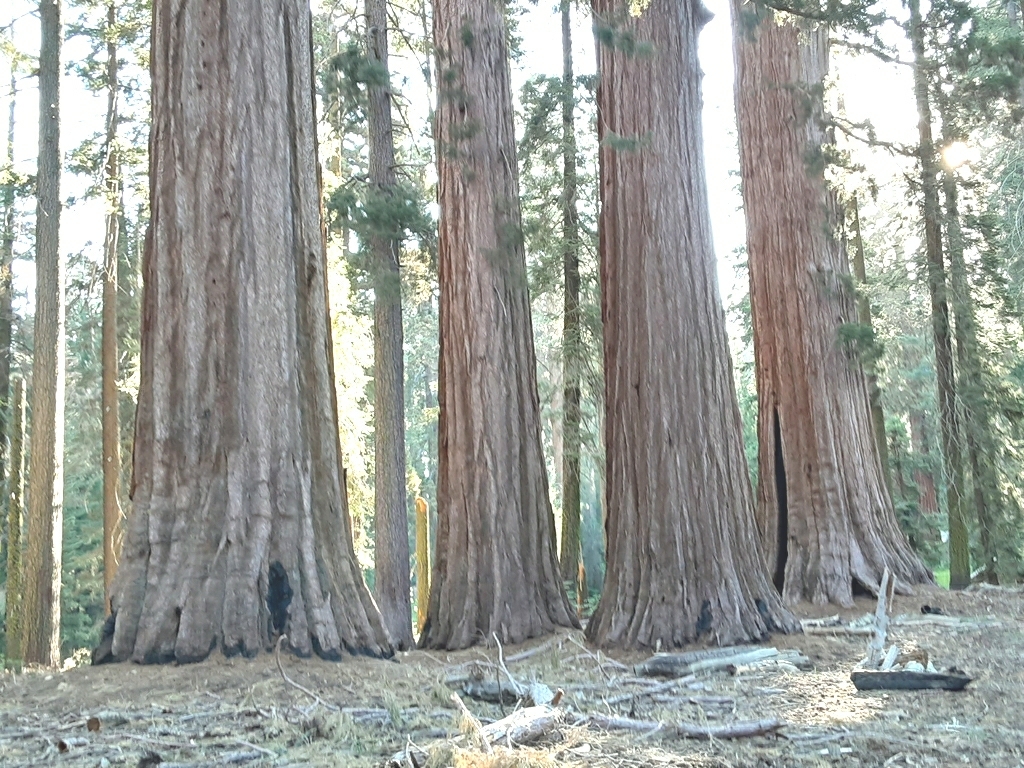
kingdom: Plantae
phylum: Tracheophyta
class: Pinopsida
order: Pinales
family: Cupressaceae
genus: Sequoiadendron
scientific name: Sequoiadendron giganteum
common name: Wellingtonia
